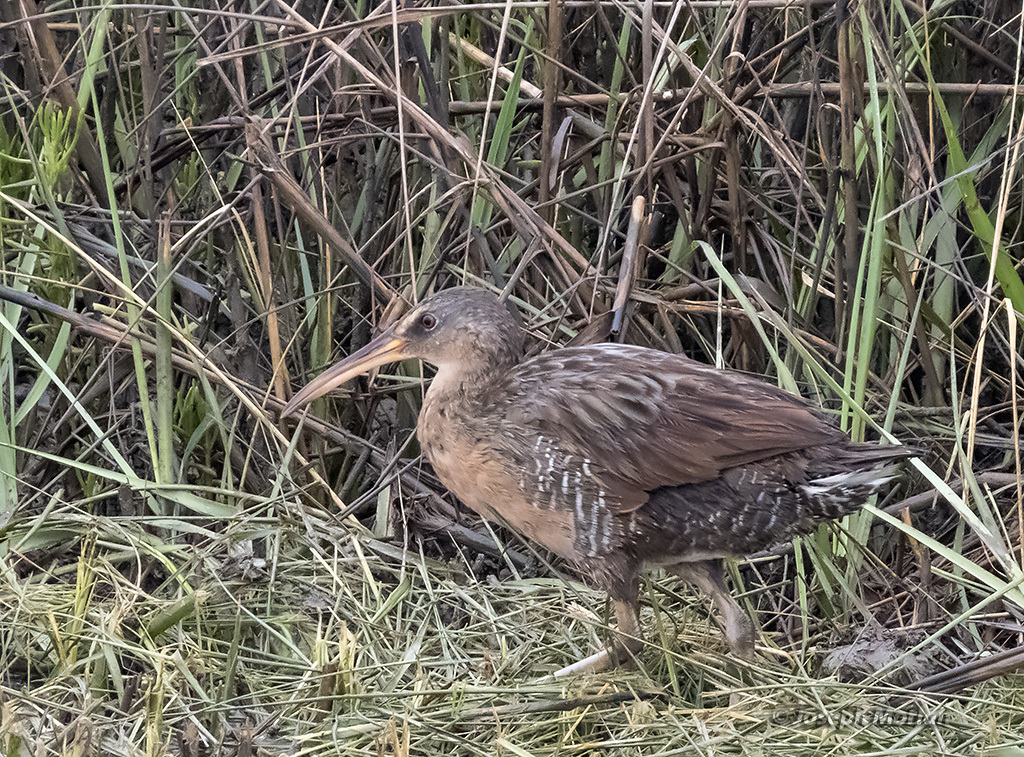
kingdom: Animalia
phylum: Chordata
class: Aves
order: Gruiformes
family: Rallidae
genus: Rallus
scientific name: Rallus crepitans
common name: Clapper rail
